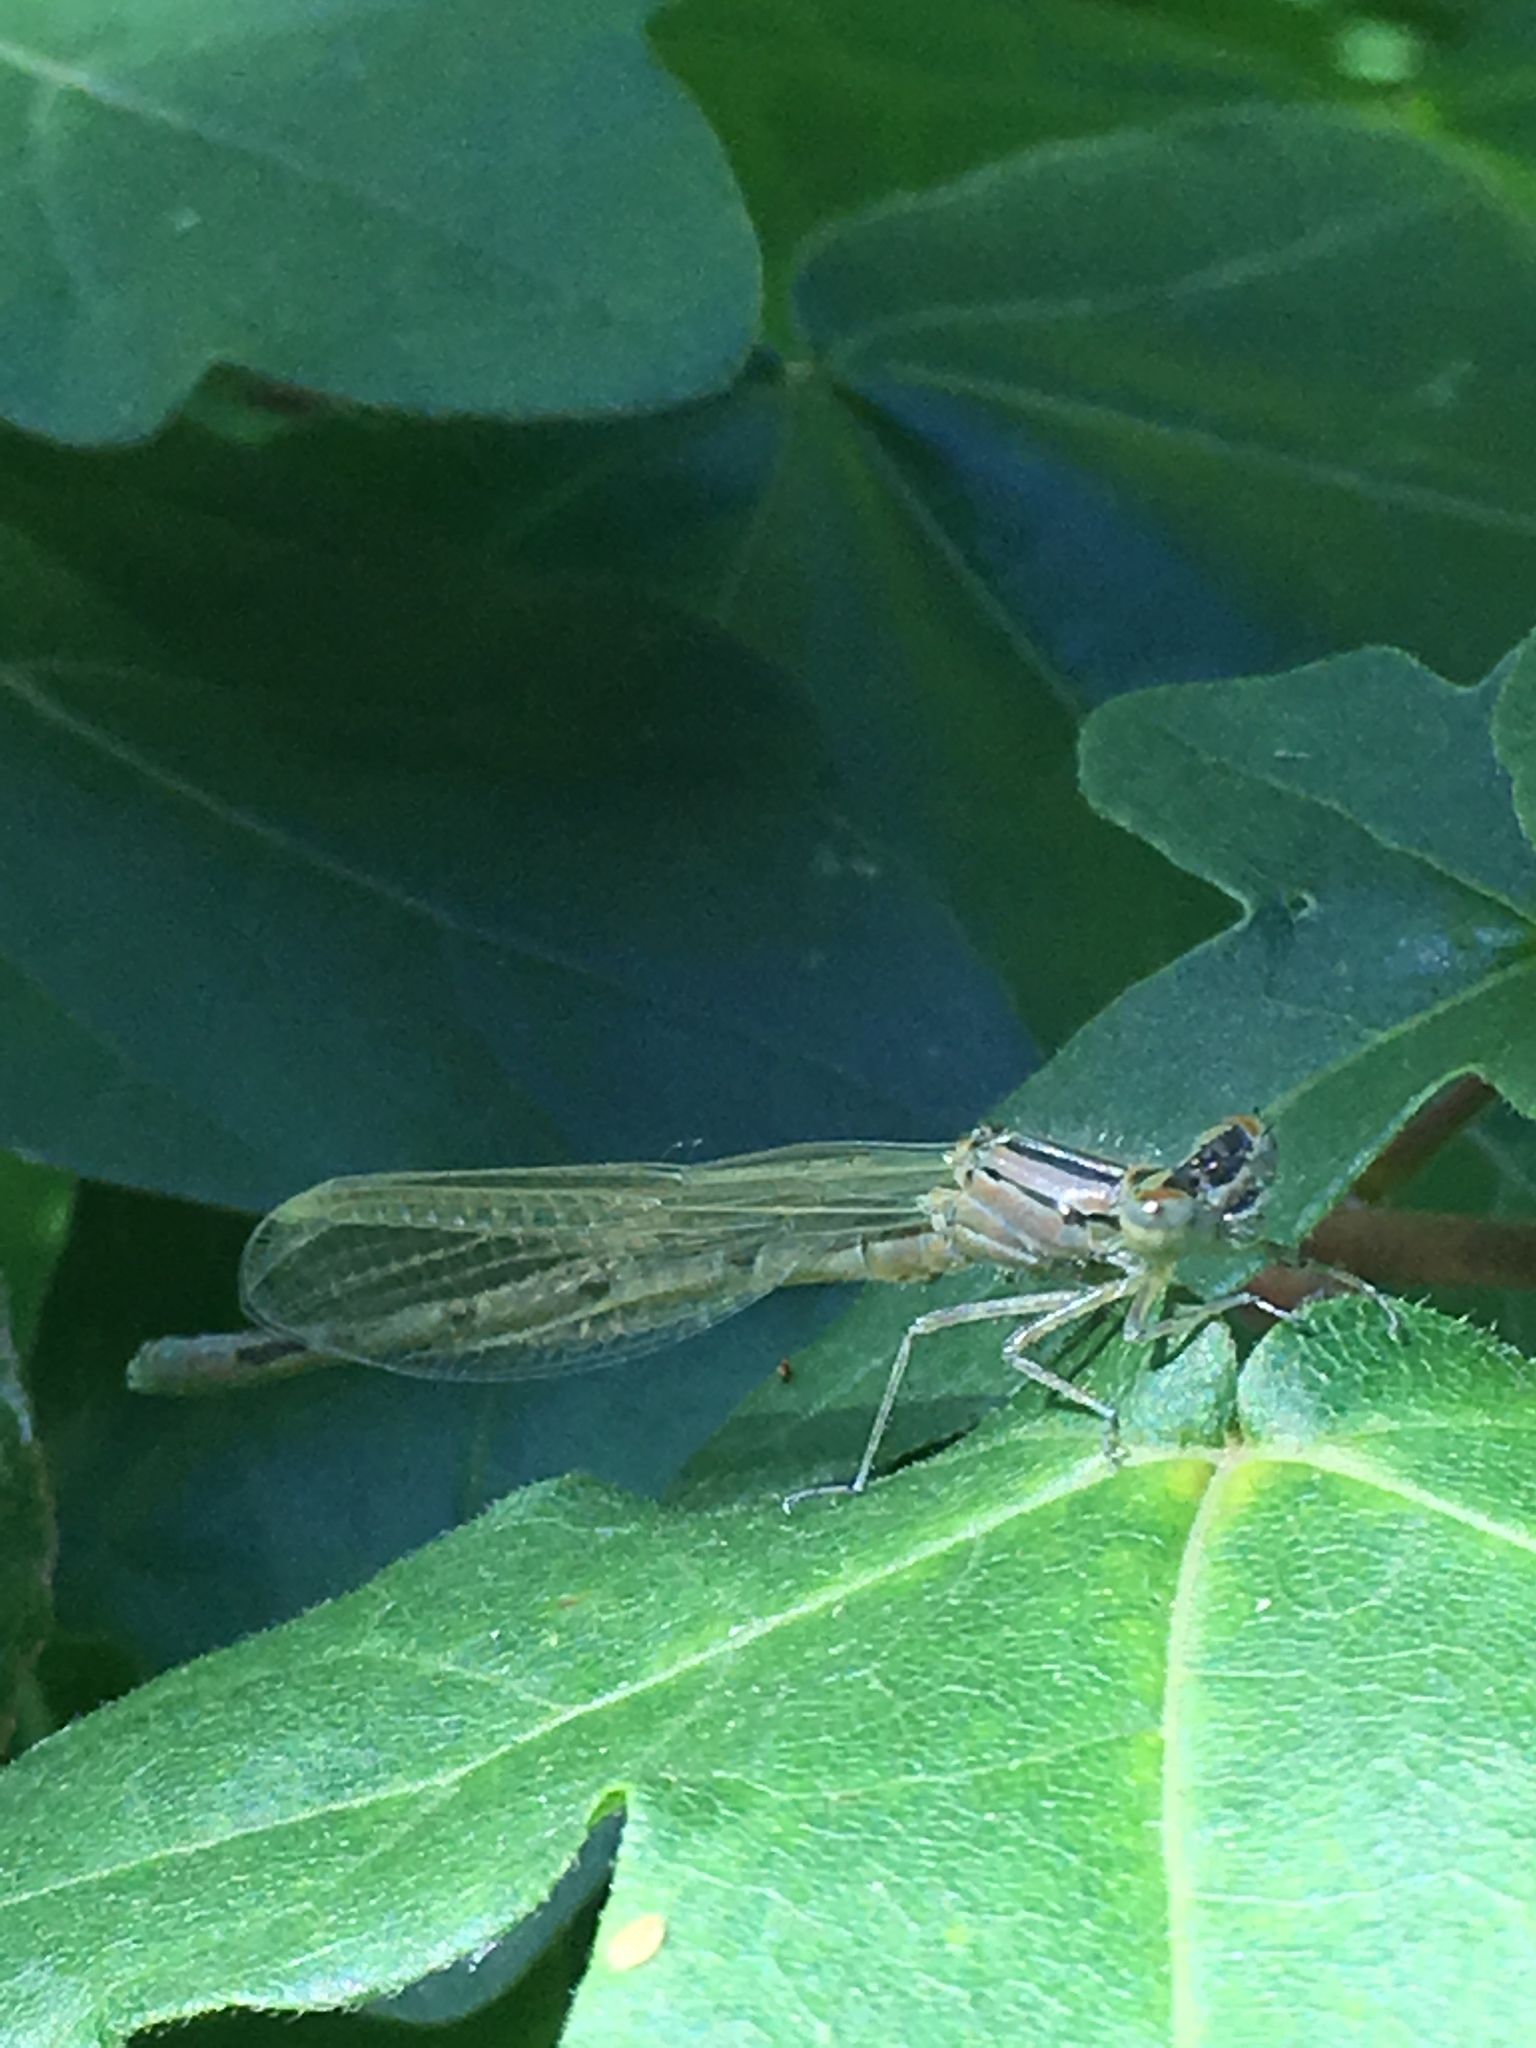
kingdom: Animalia
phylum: Arthropoda
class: Insecta
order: Odonata
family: Coenagrionidae
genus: Enallagma
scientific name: Enallagma cyathigerum
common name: Common blue damselfly
